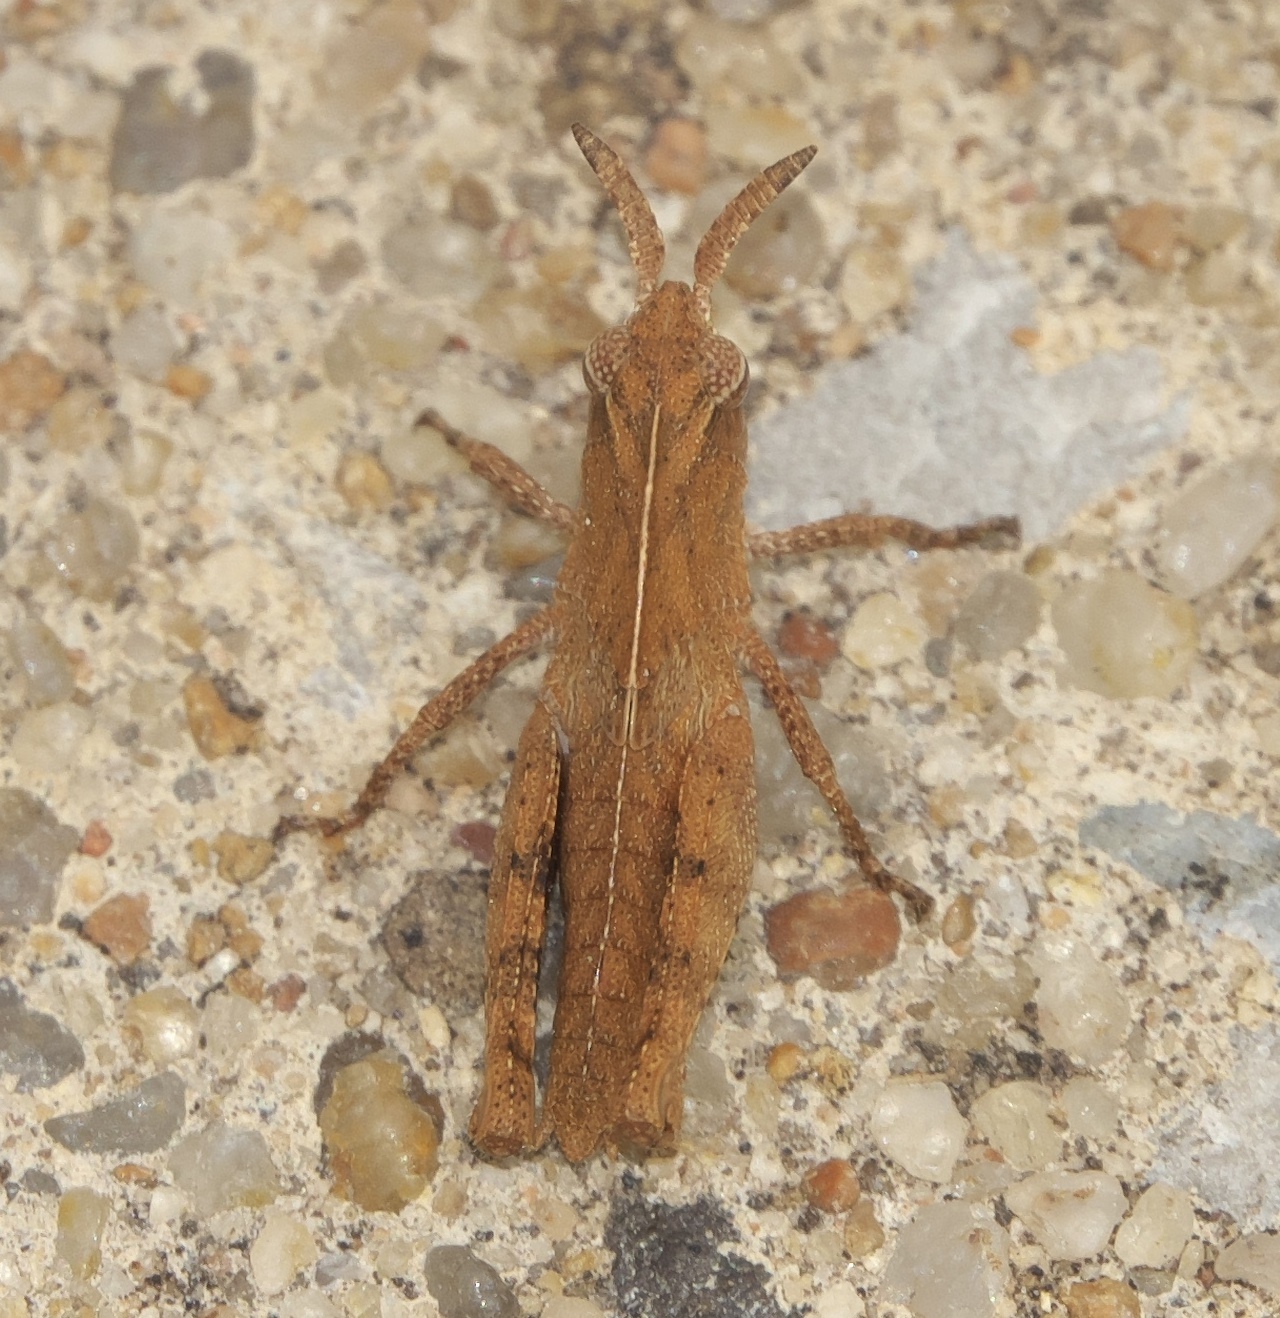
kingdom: Animalia
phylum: Arthropoda
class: Insecta
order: Orthoptera
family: Acrididae
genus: Chortophaga
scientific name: Chortophaga viridifasciata
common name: Green-striped grasshopper
